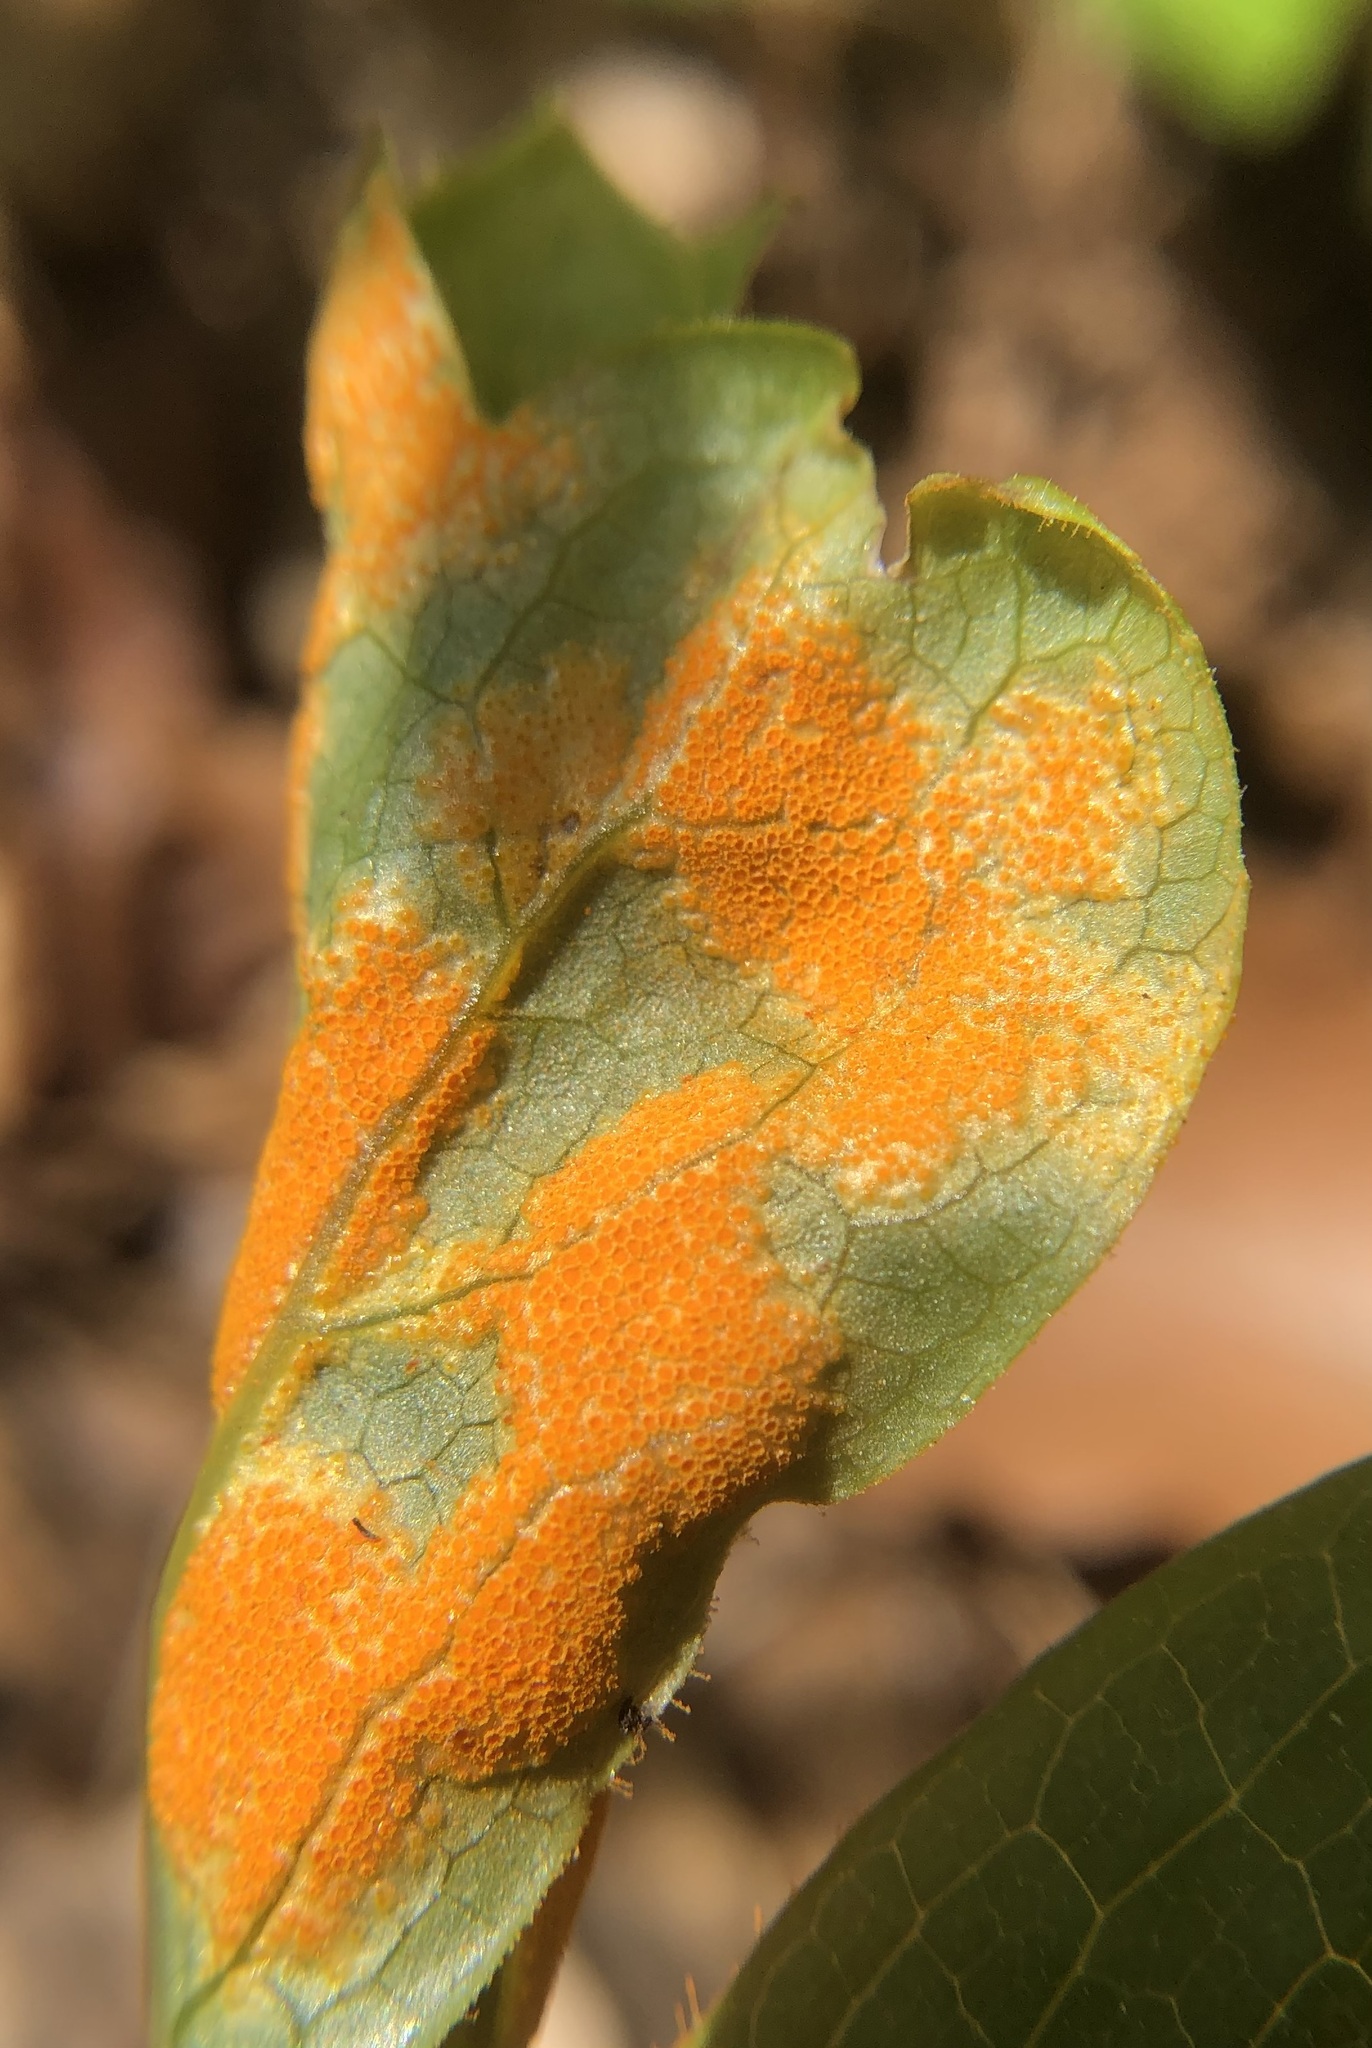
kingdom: Fungi
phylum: Basidiomycota
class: Pucciniomycetes
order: Pucciniales
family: Pucciniaceae
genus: Puccinia
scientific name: Puccinia podophylli
